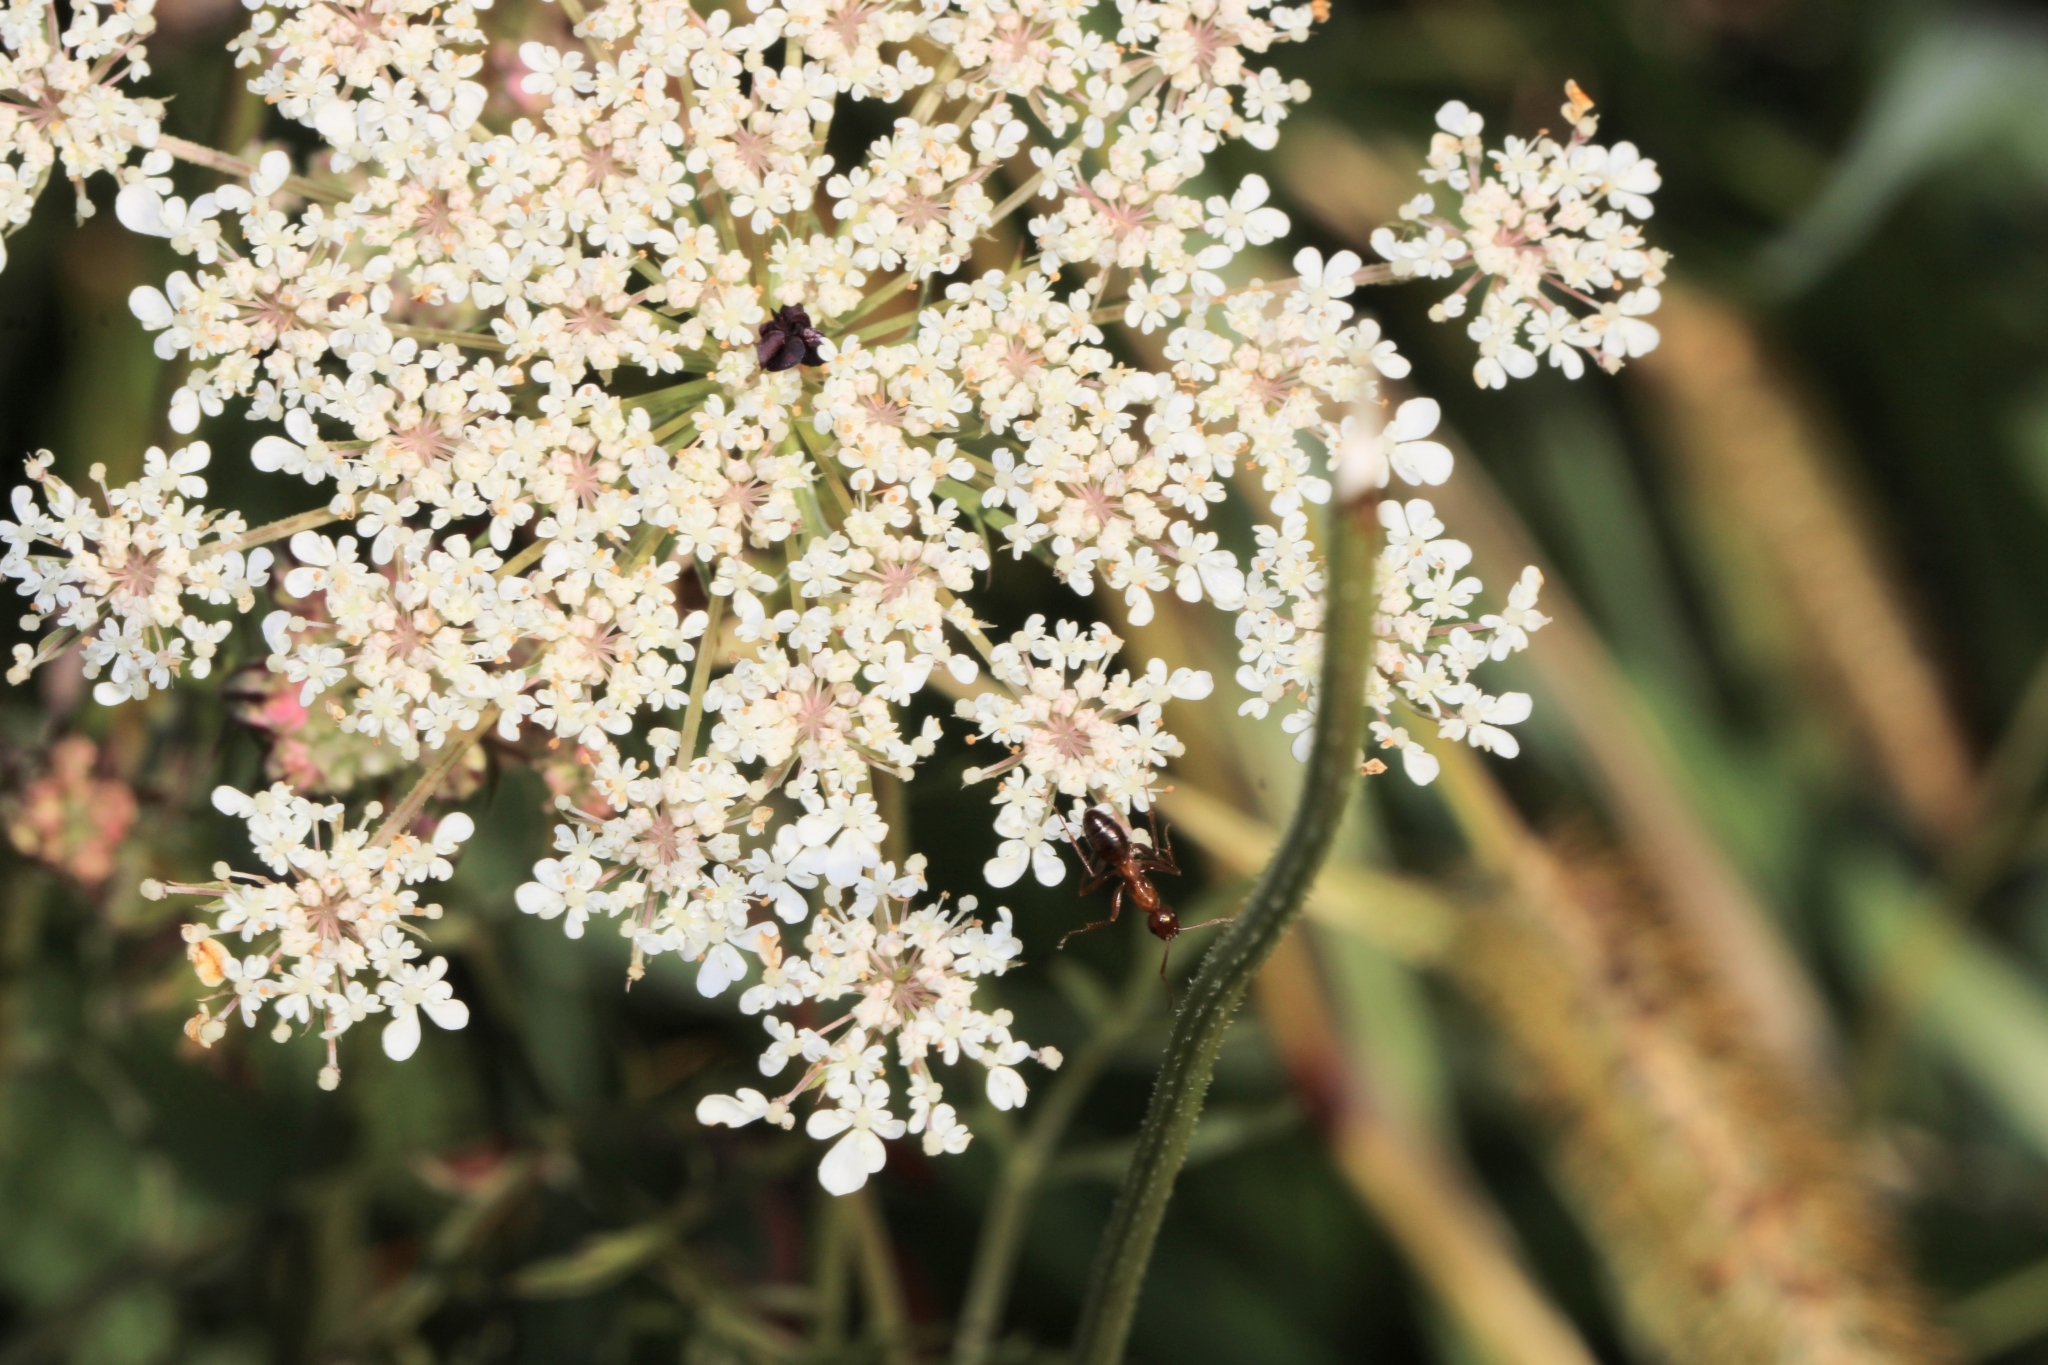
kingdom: Plantae
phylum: Tracheophyta
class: Magnoliopsida
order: Apiales
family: Apiaceae
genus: Daucus
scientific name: Daucus carota
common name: Wild carrot
